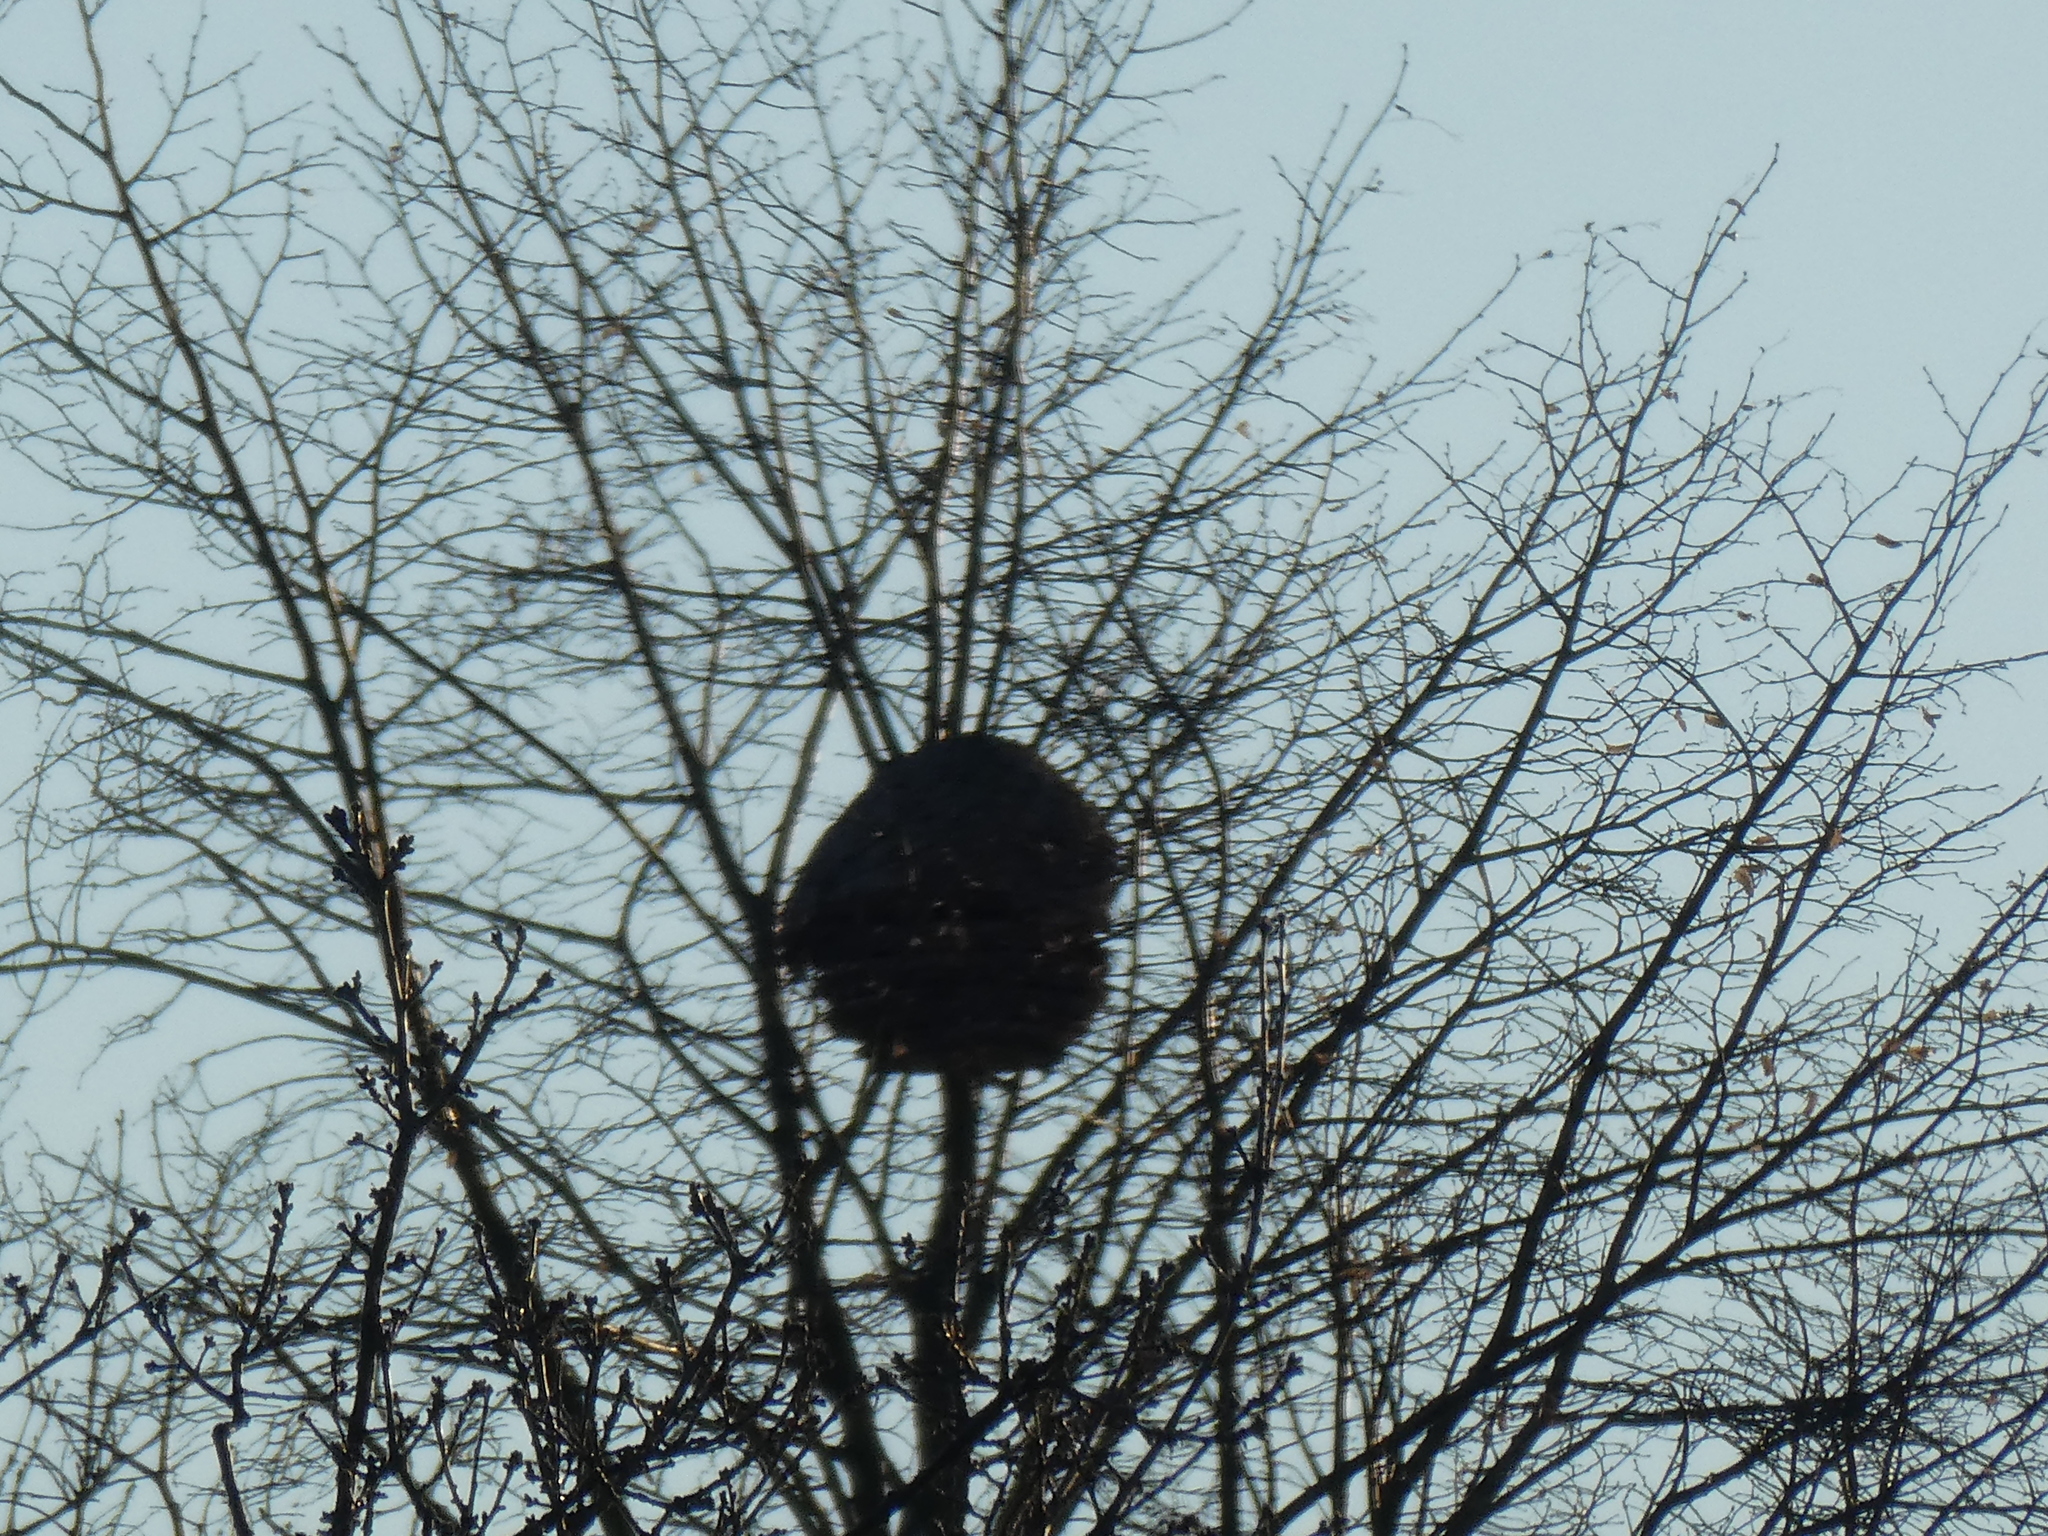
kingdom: Animalia
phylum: Arthropoda
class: Insecta
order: Hymenoptera
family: Vespidae
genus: Vespa
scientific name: Vespa velutina
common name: Asian hornet
